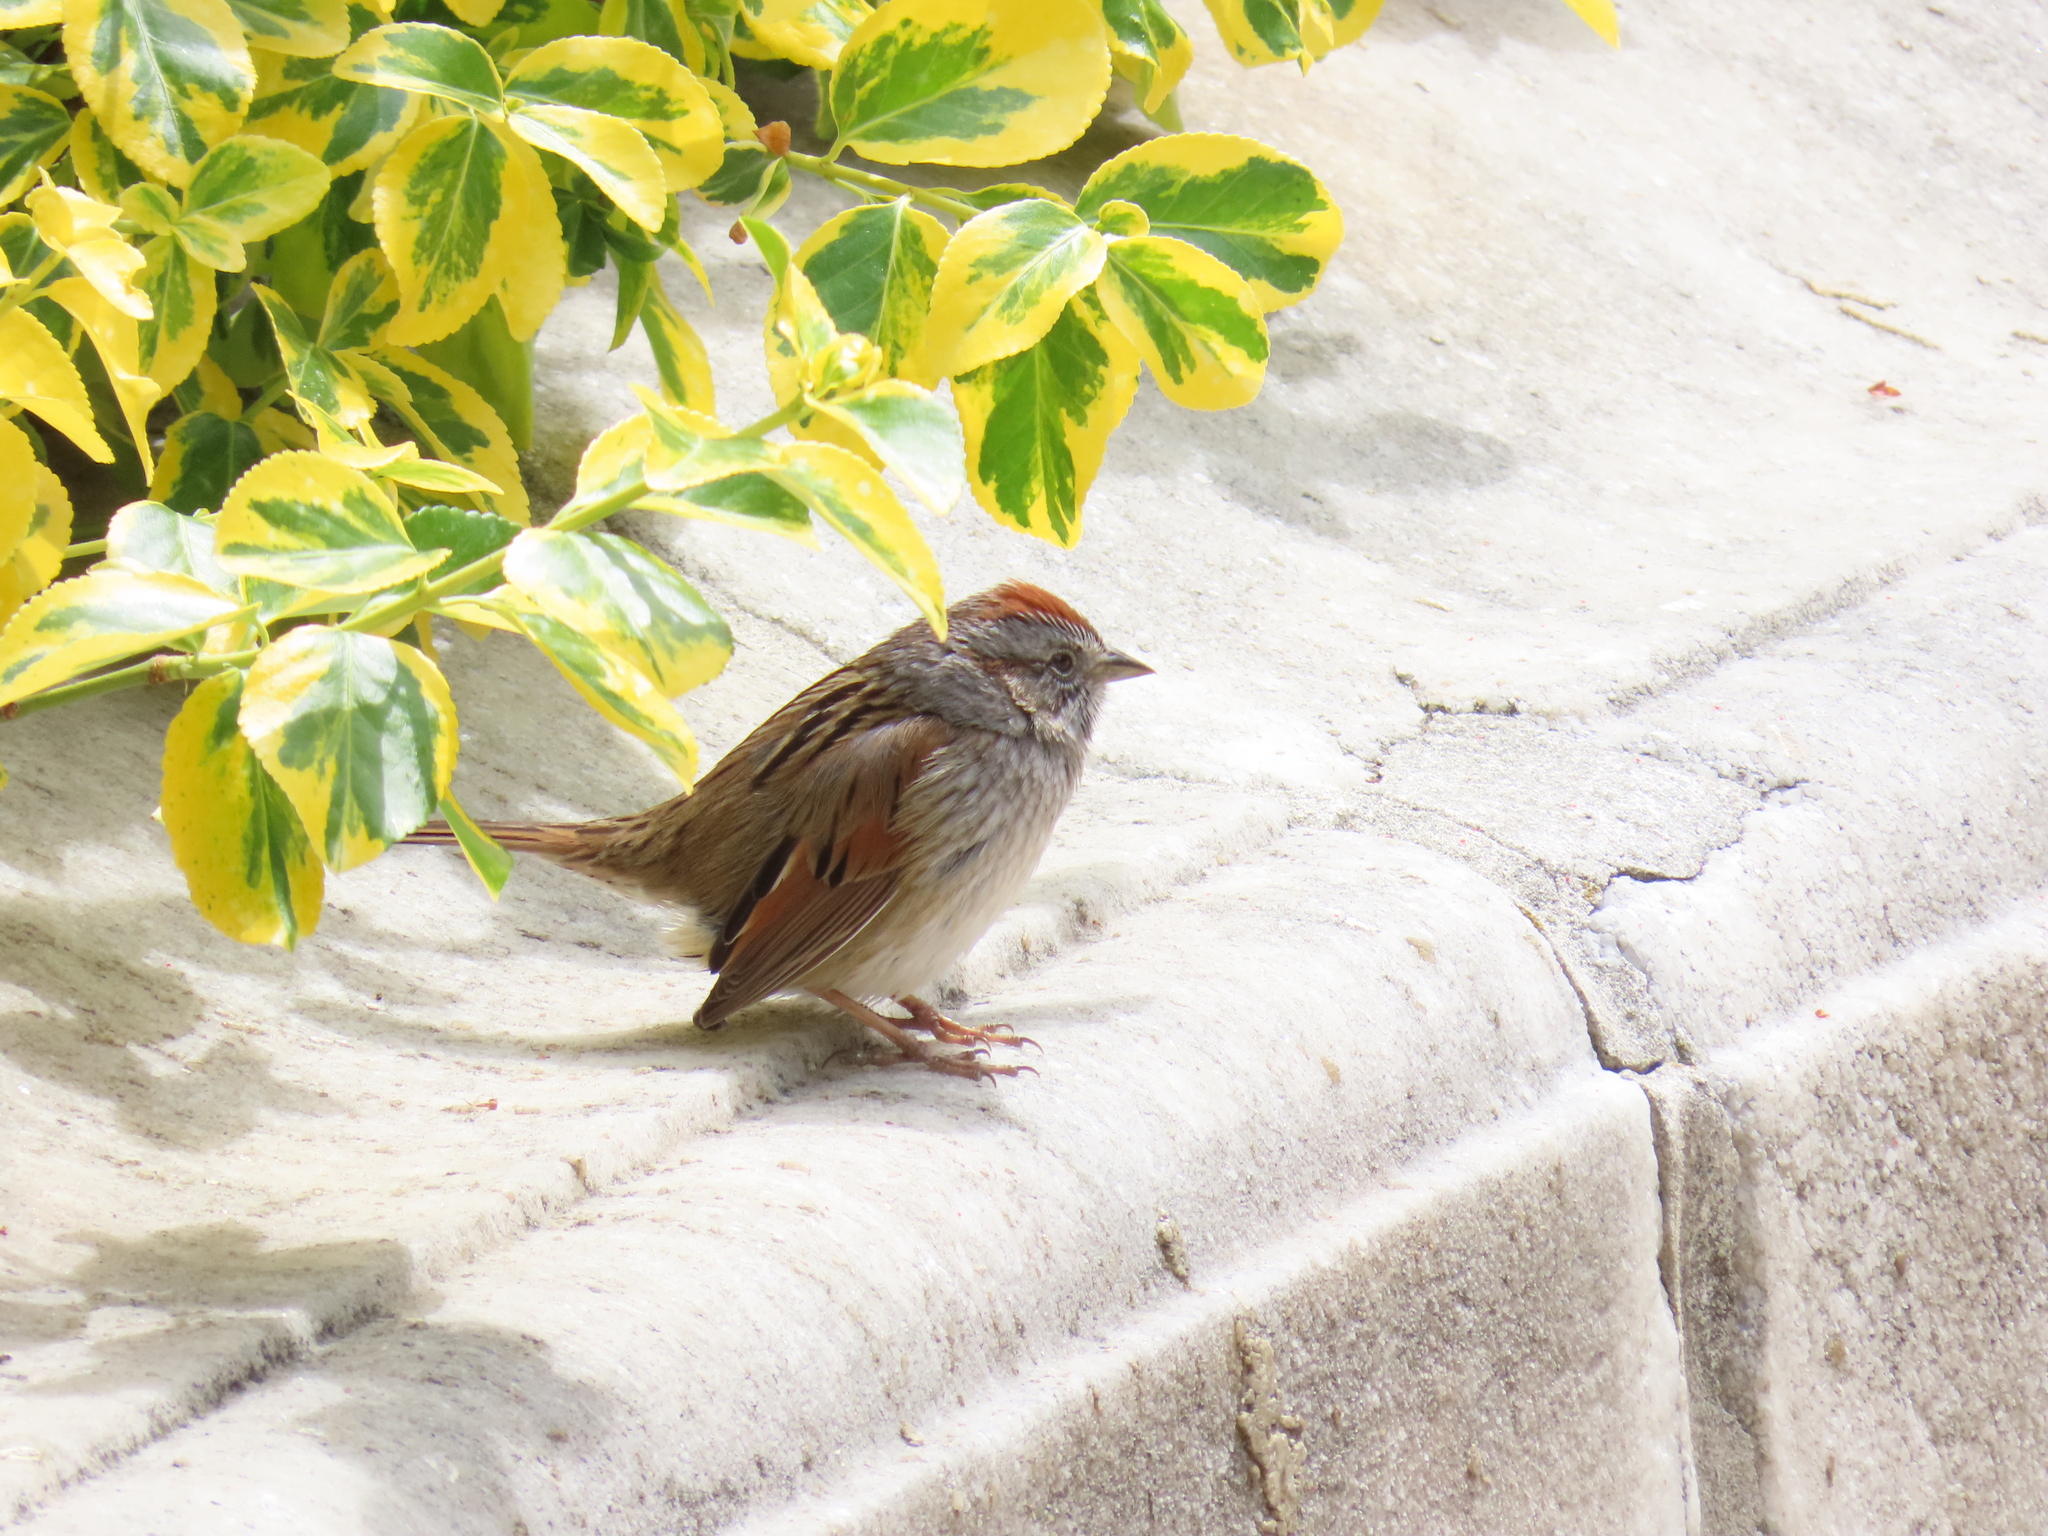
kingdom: Animalia
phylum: Chordata
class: Aves
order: Passeriformes
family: Passerellidae
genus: Melospiza
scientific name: Melospiza georgiana
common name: Swamp sparrow
